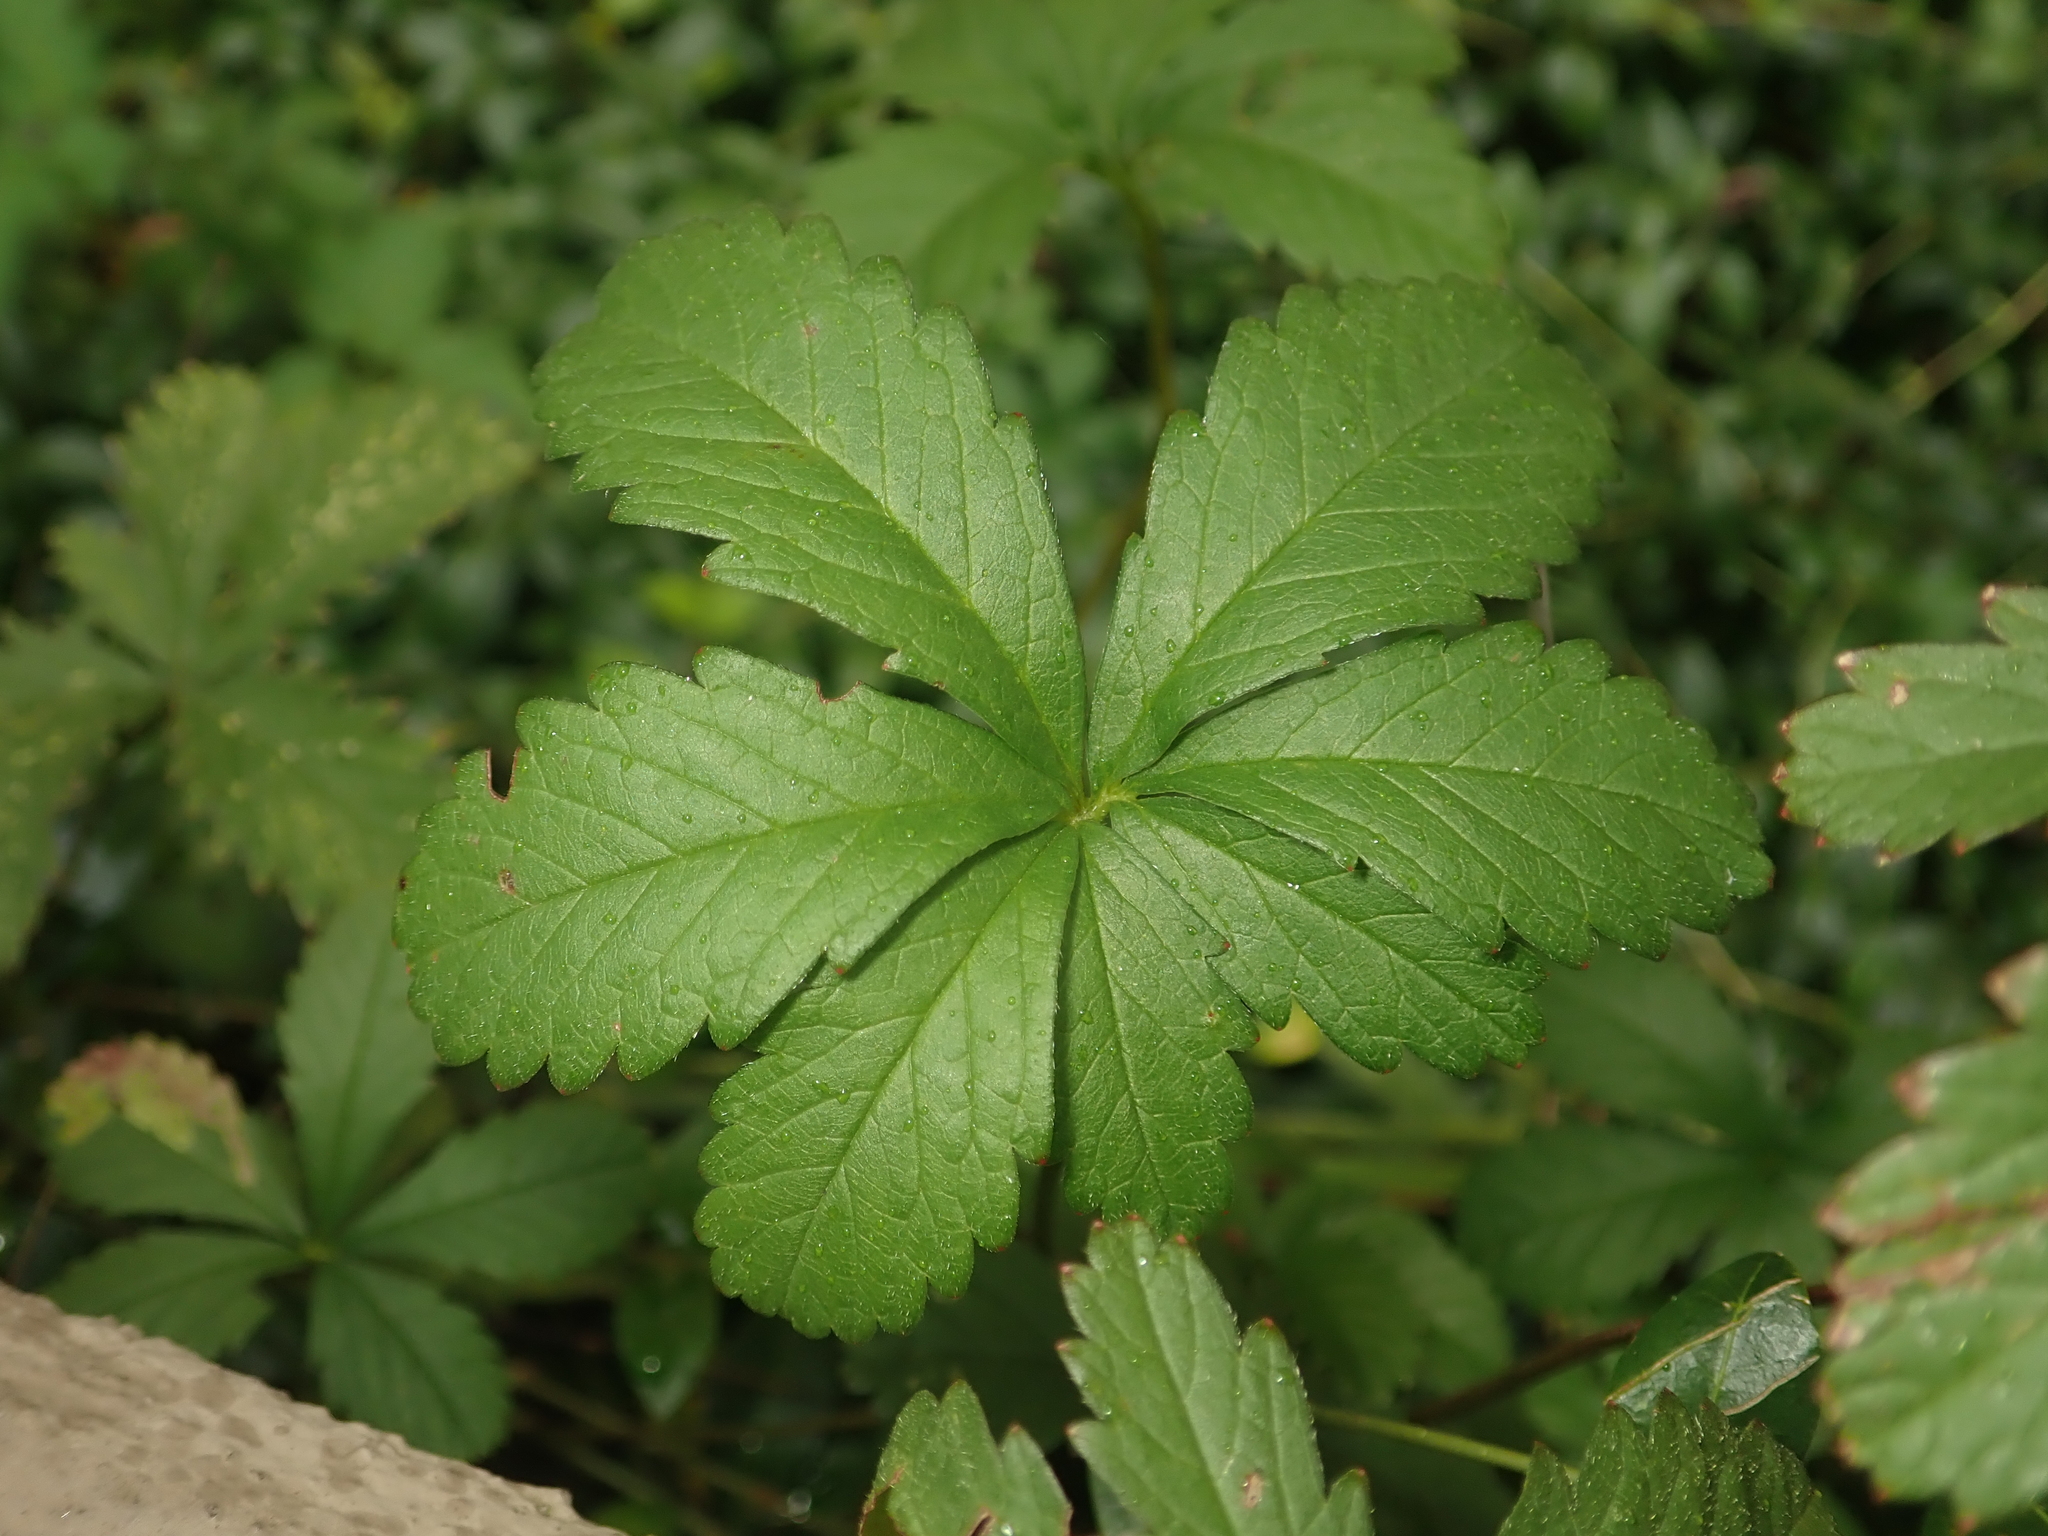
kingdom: Plantae
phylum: Tracheophyta
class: Magnoliopsida
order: Rosales
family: Rosaceae
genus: Potentilla
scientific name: Potentilla reptans
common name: Creeping cinquefoil
